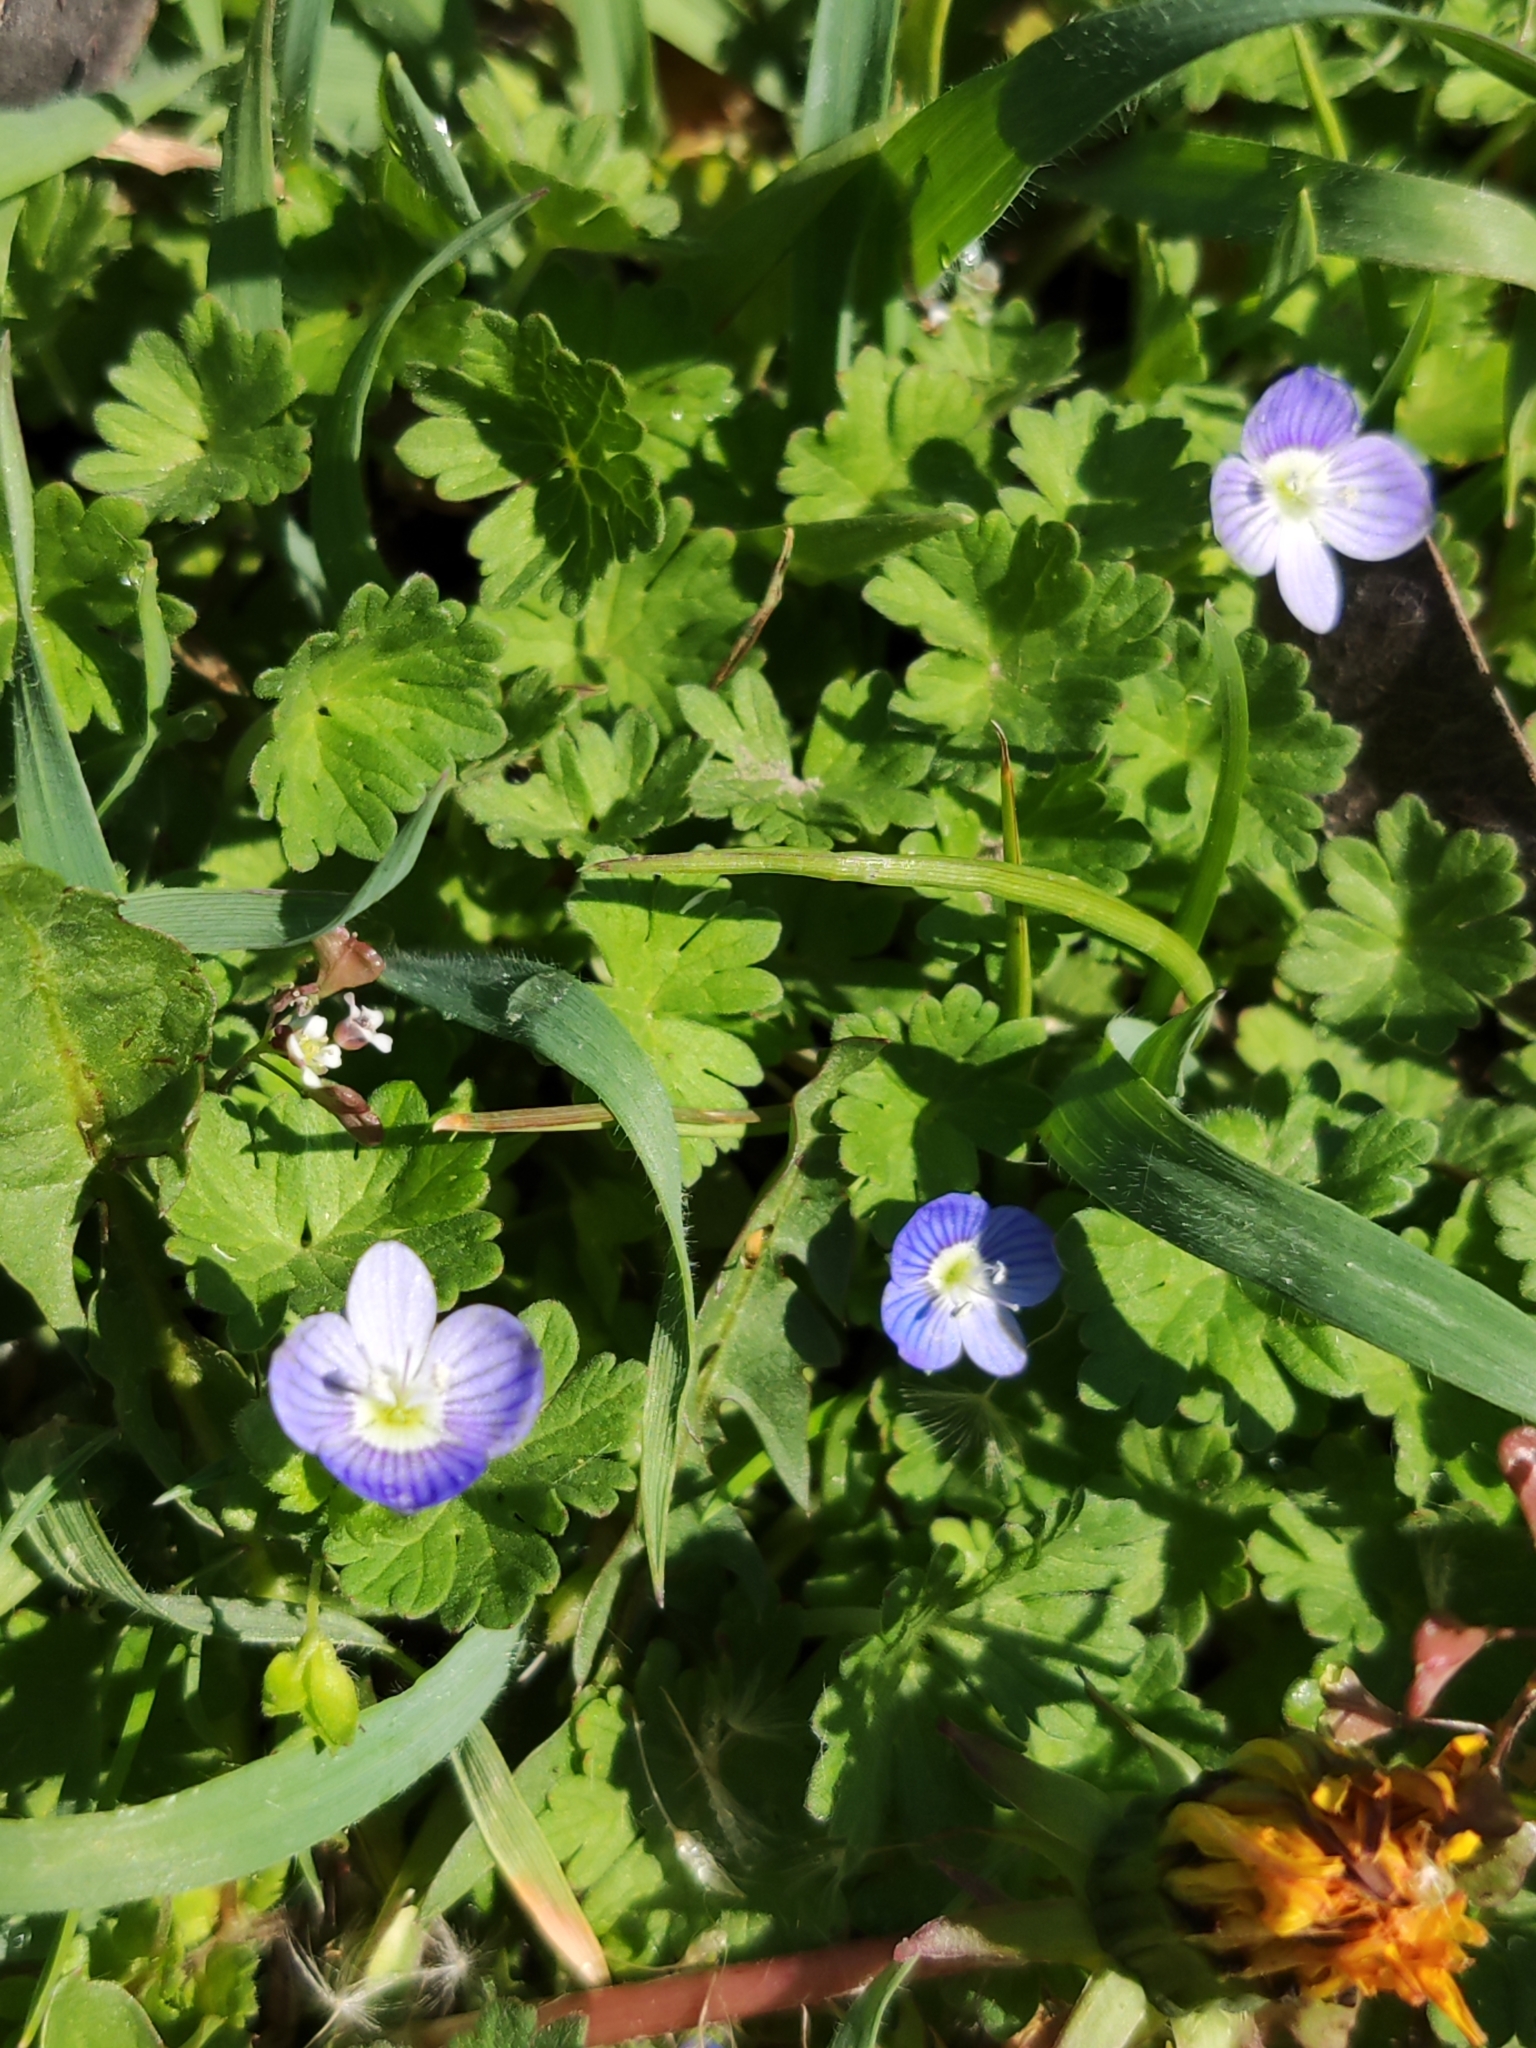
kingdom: Plantae
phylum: Tracheophyta
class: Magnoliopsida
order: Lamiales
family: Plantaginaceae
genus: Veronica
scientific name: Veronica persica
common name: Common field-speedwell
